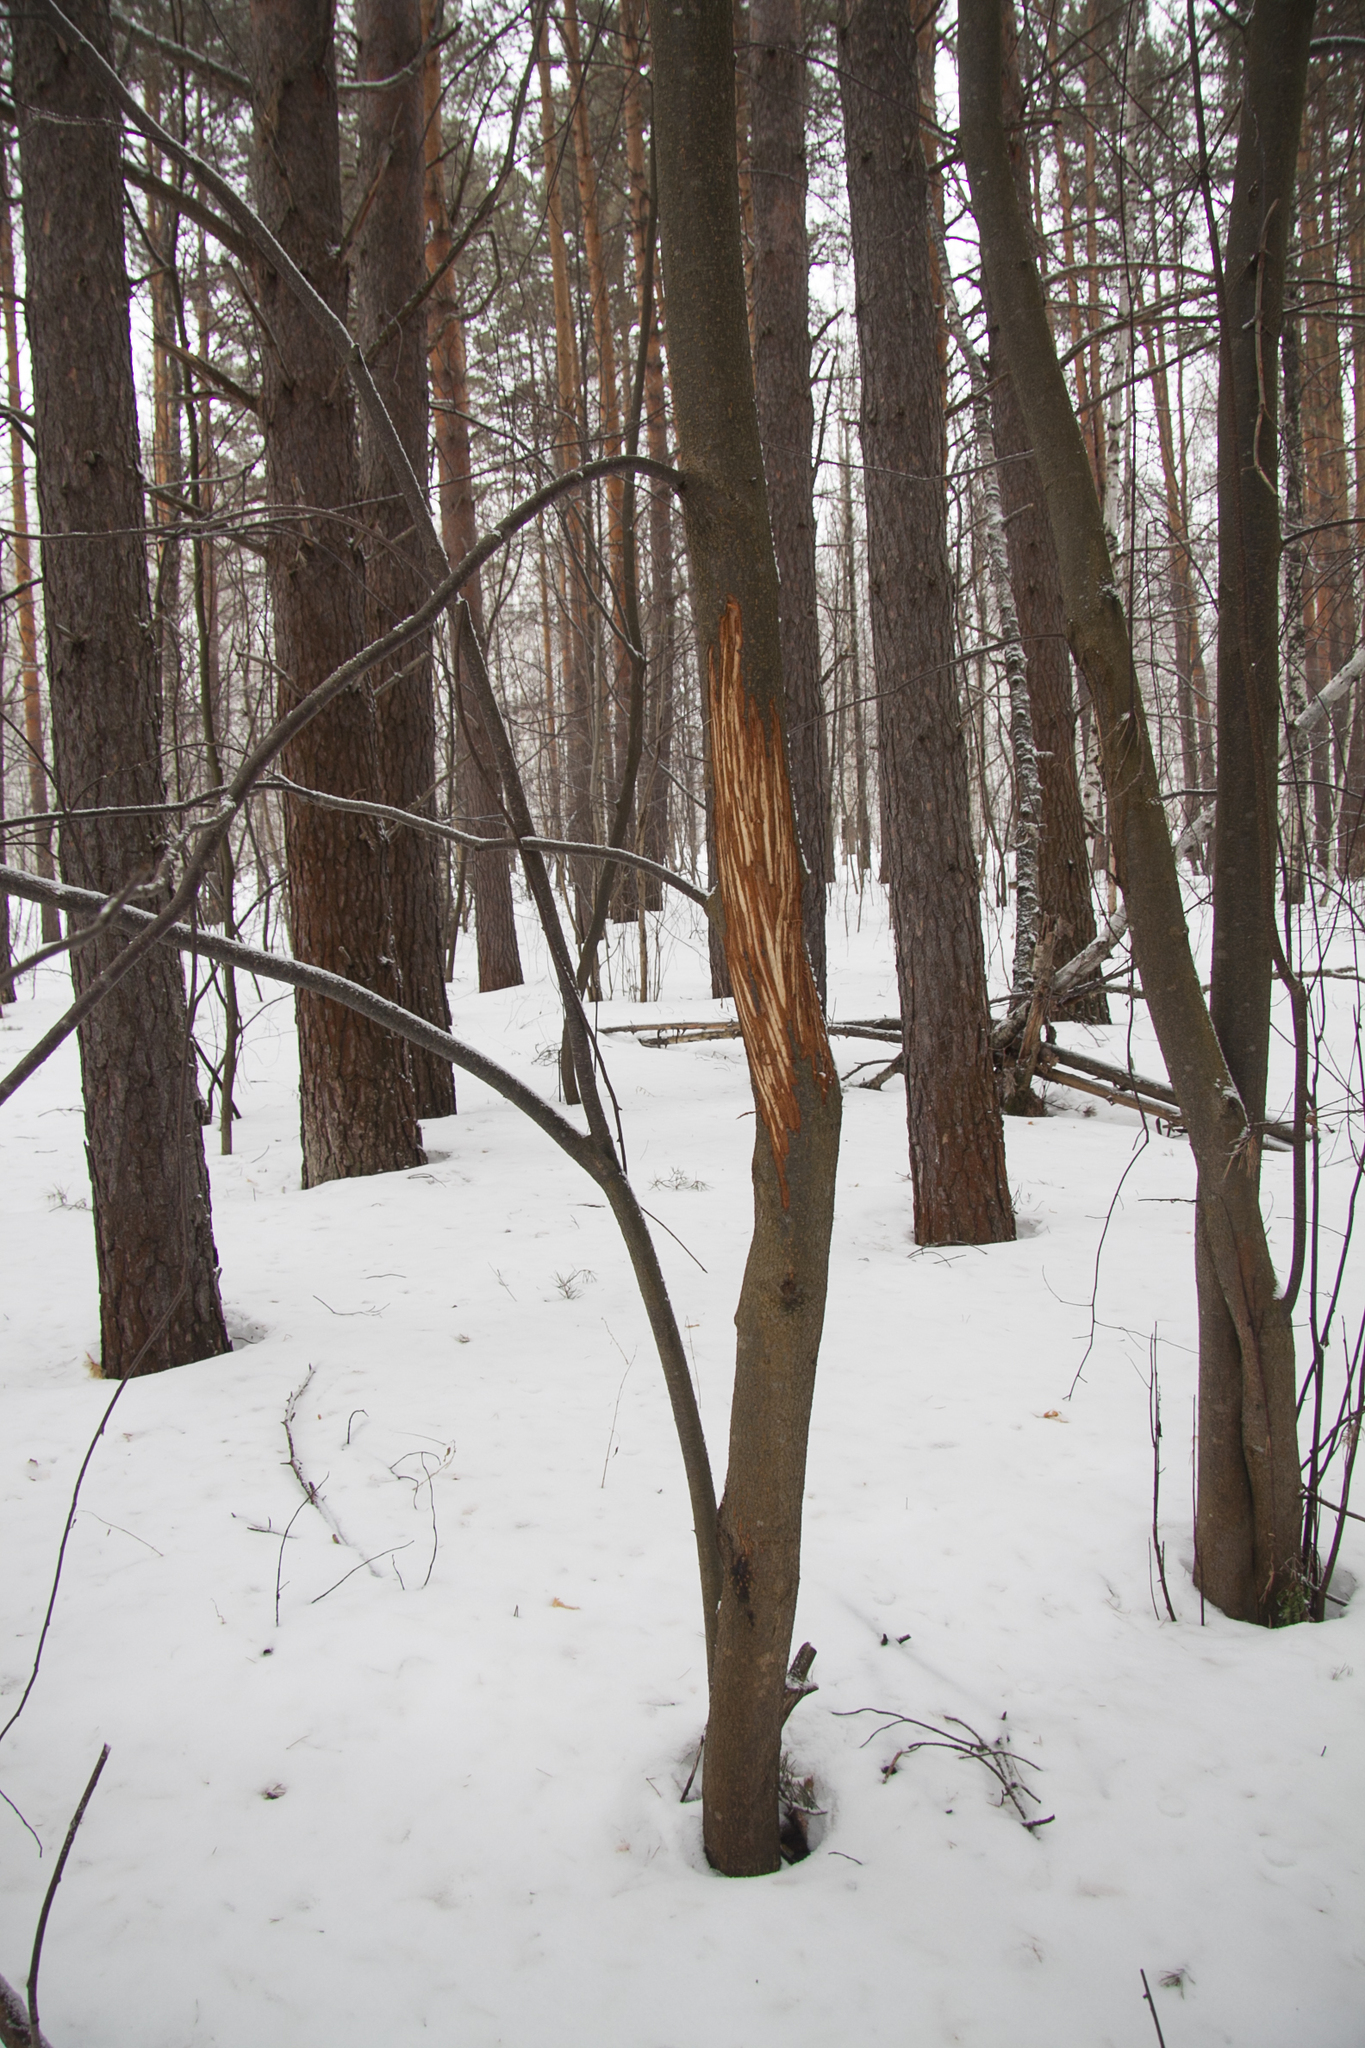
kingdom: Animalia
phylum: Chordata
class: Mammalia
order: Artiodactyla
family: Cervidae
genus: Alces
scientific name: Alces alces
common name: Moose
